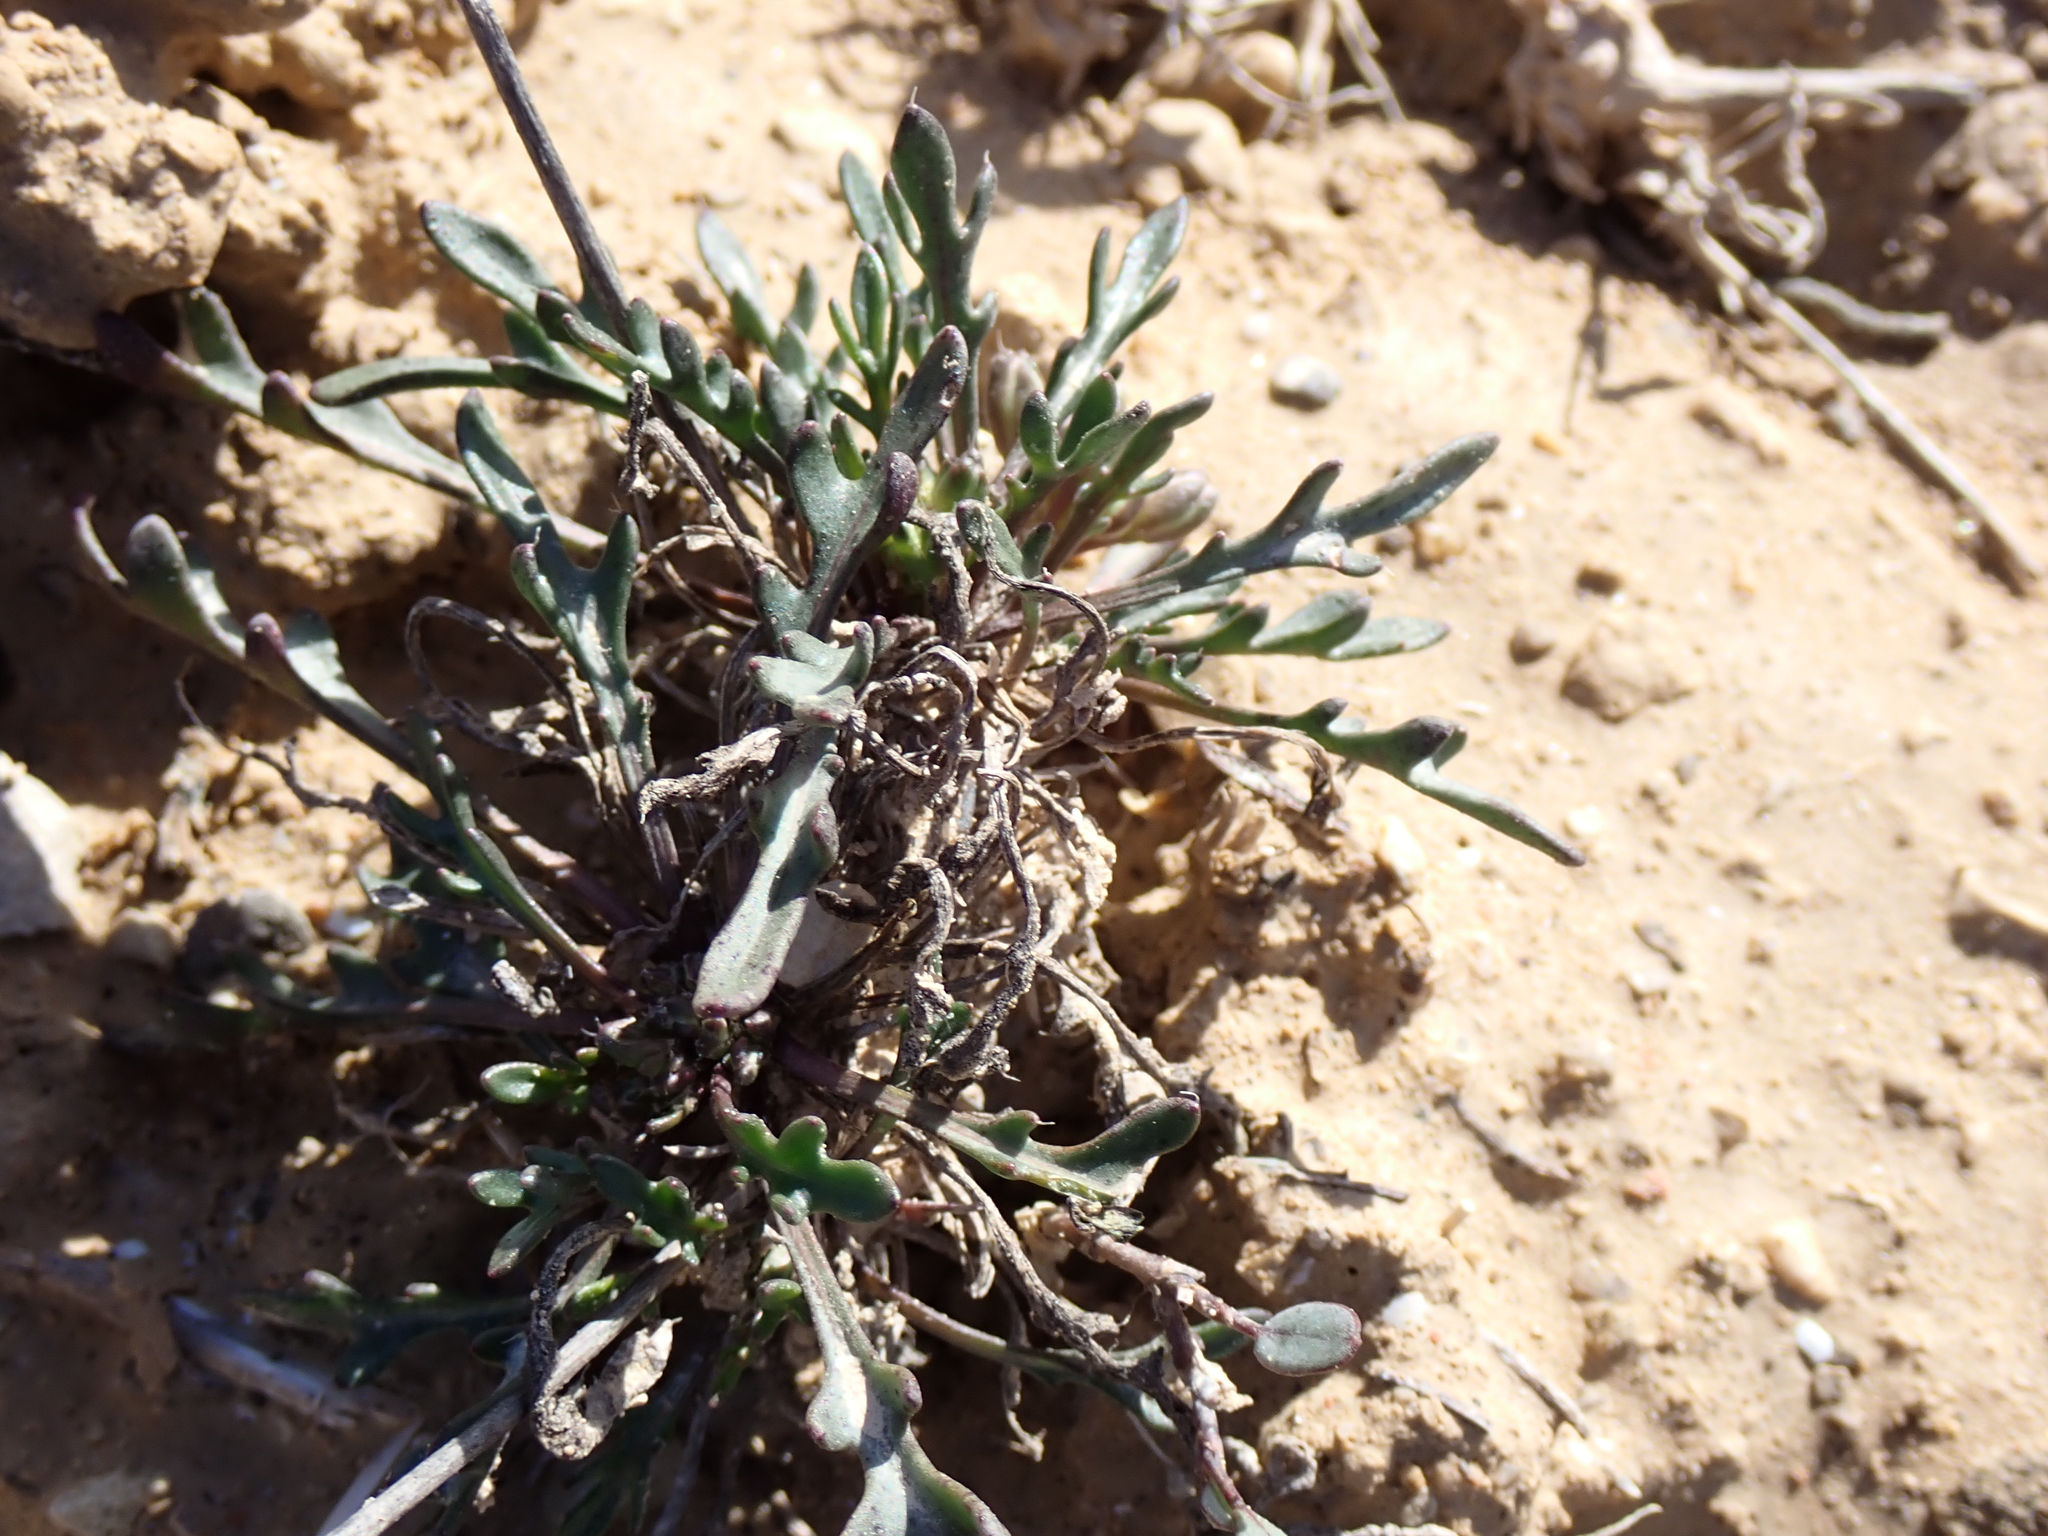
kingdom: Plantae
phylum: Tracheophyta
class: Magnoliopsida
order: Brassicales
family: Brassicaceae
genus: Brassica
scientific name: Brassica repanda
